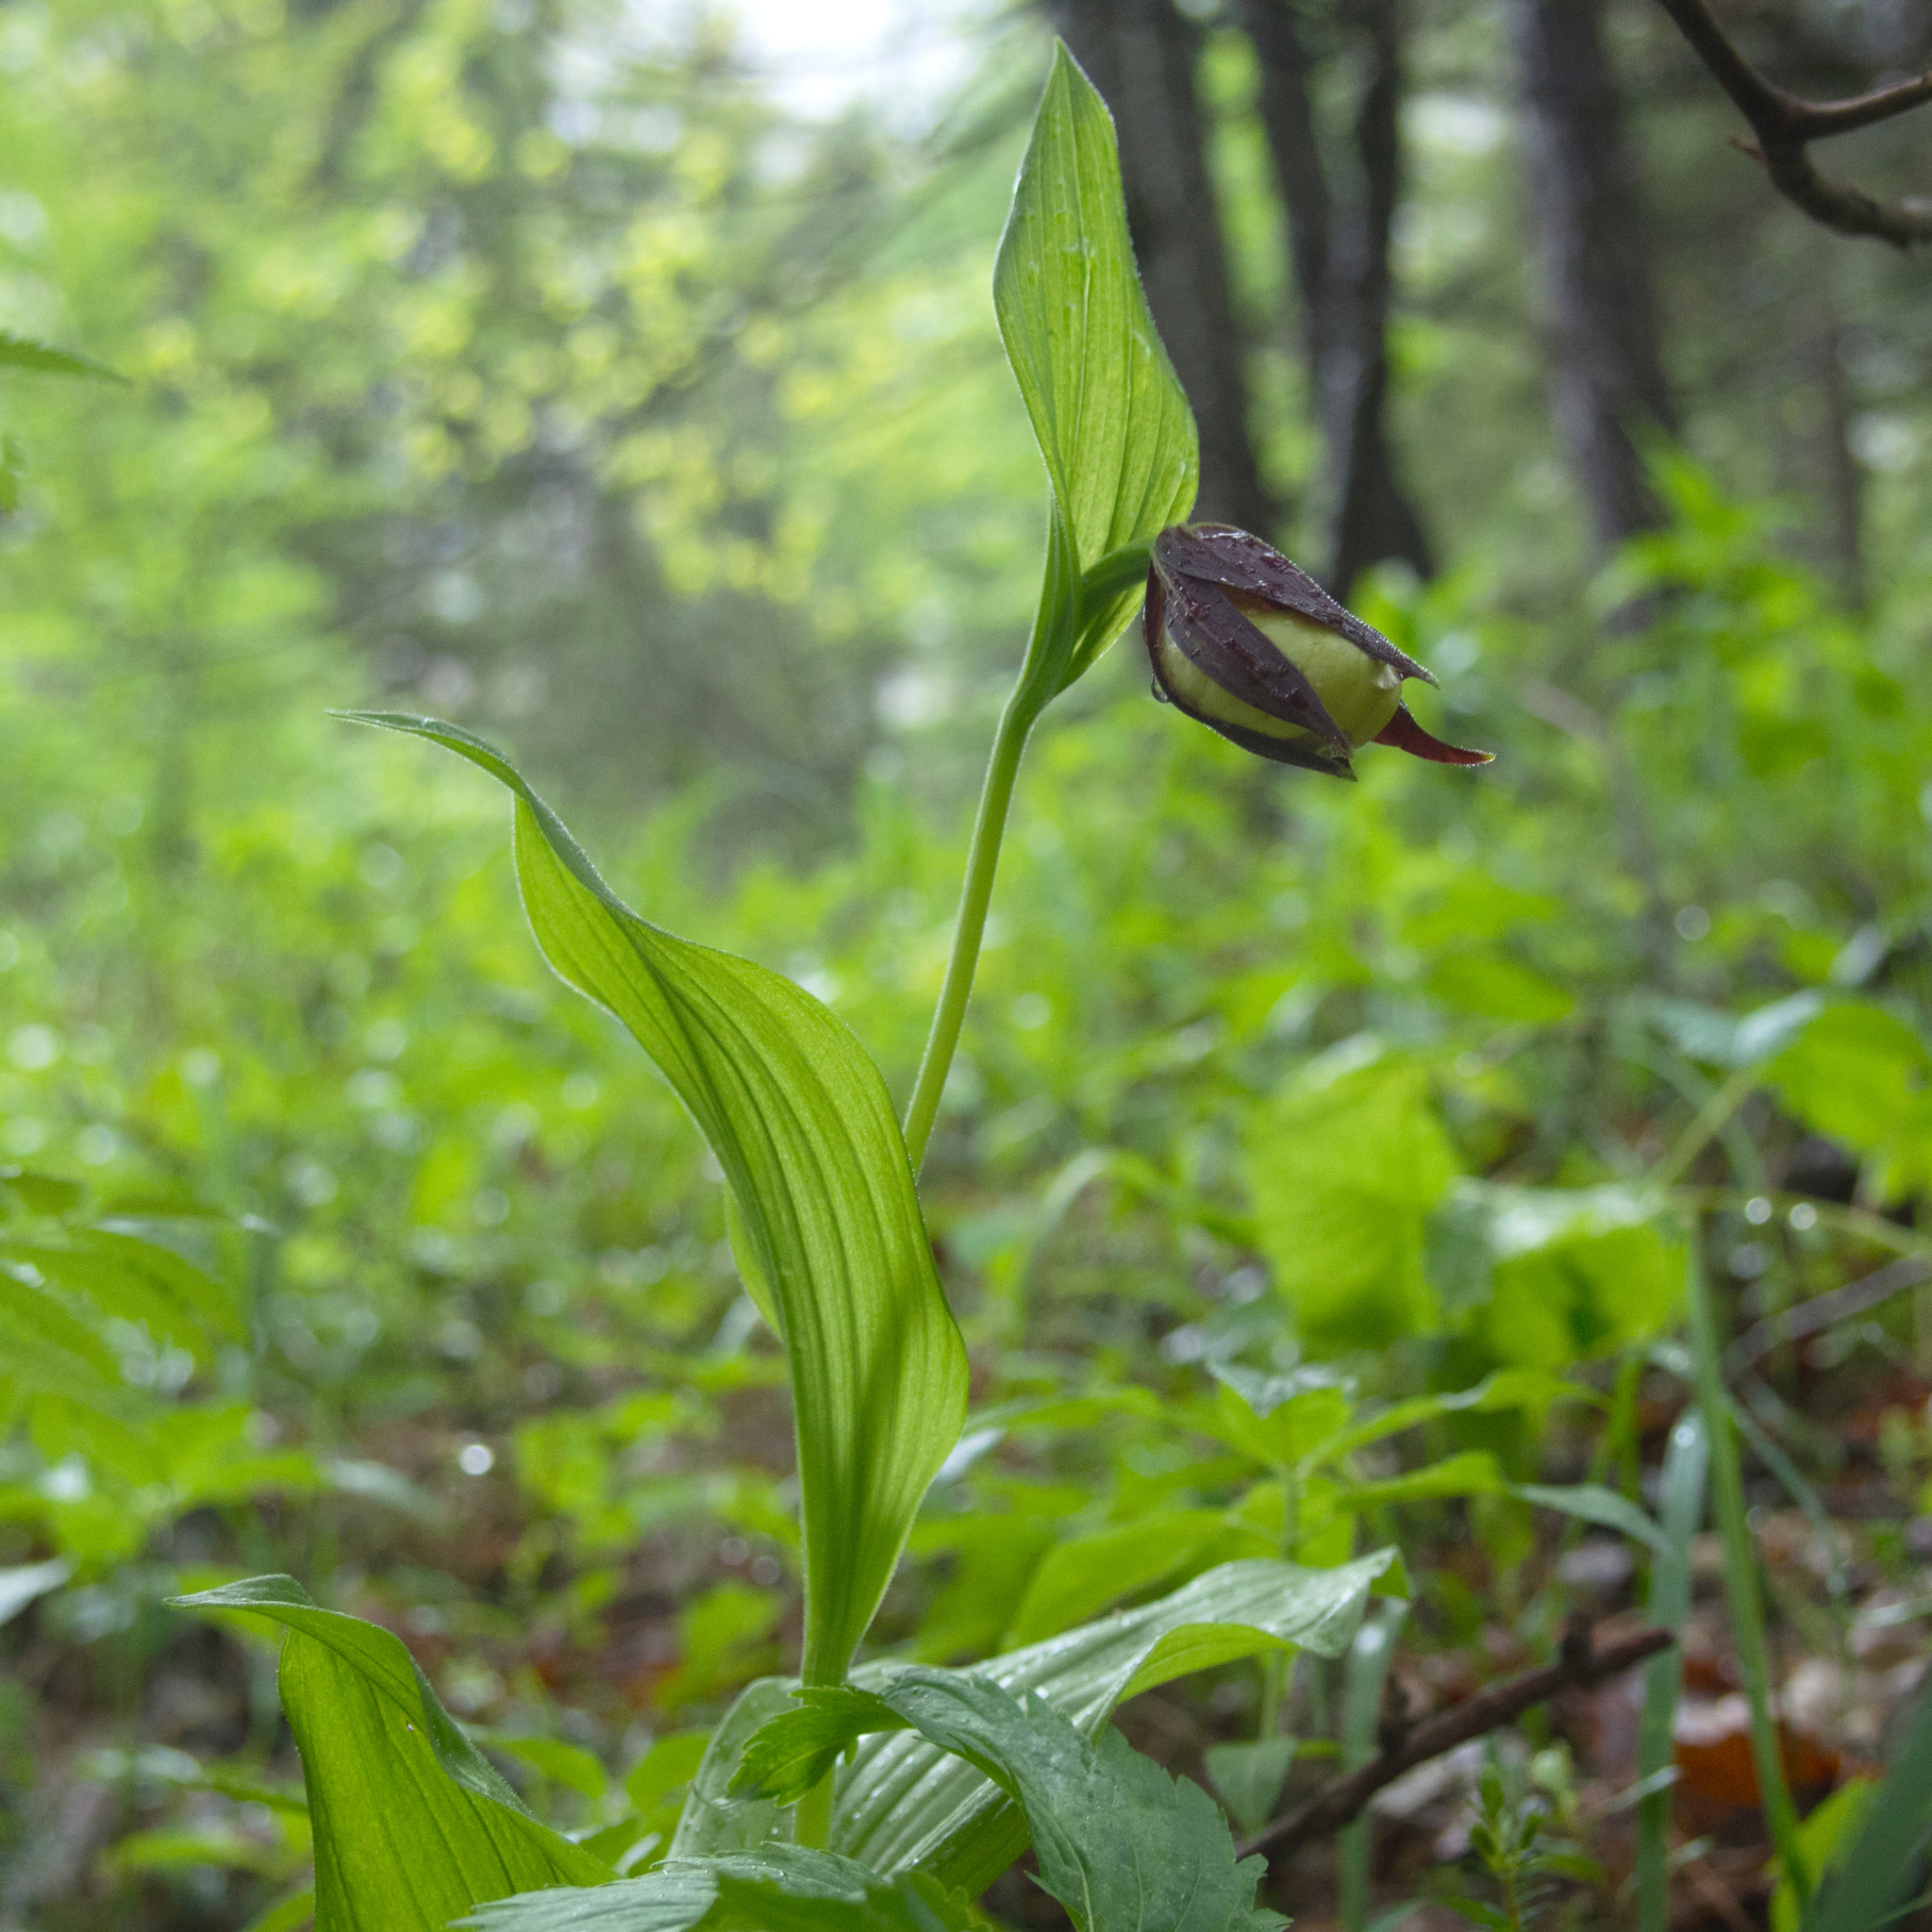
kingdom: Plantae
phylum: Tracheophyta
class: Liliopsida
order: Asparagales
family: Orchidaceae
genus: Cypripedium
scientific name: Cypripedium calceolus
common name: Lady's-slipper
